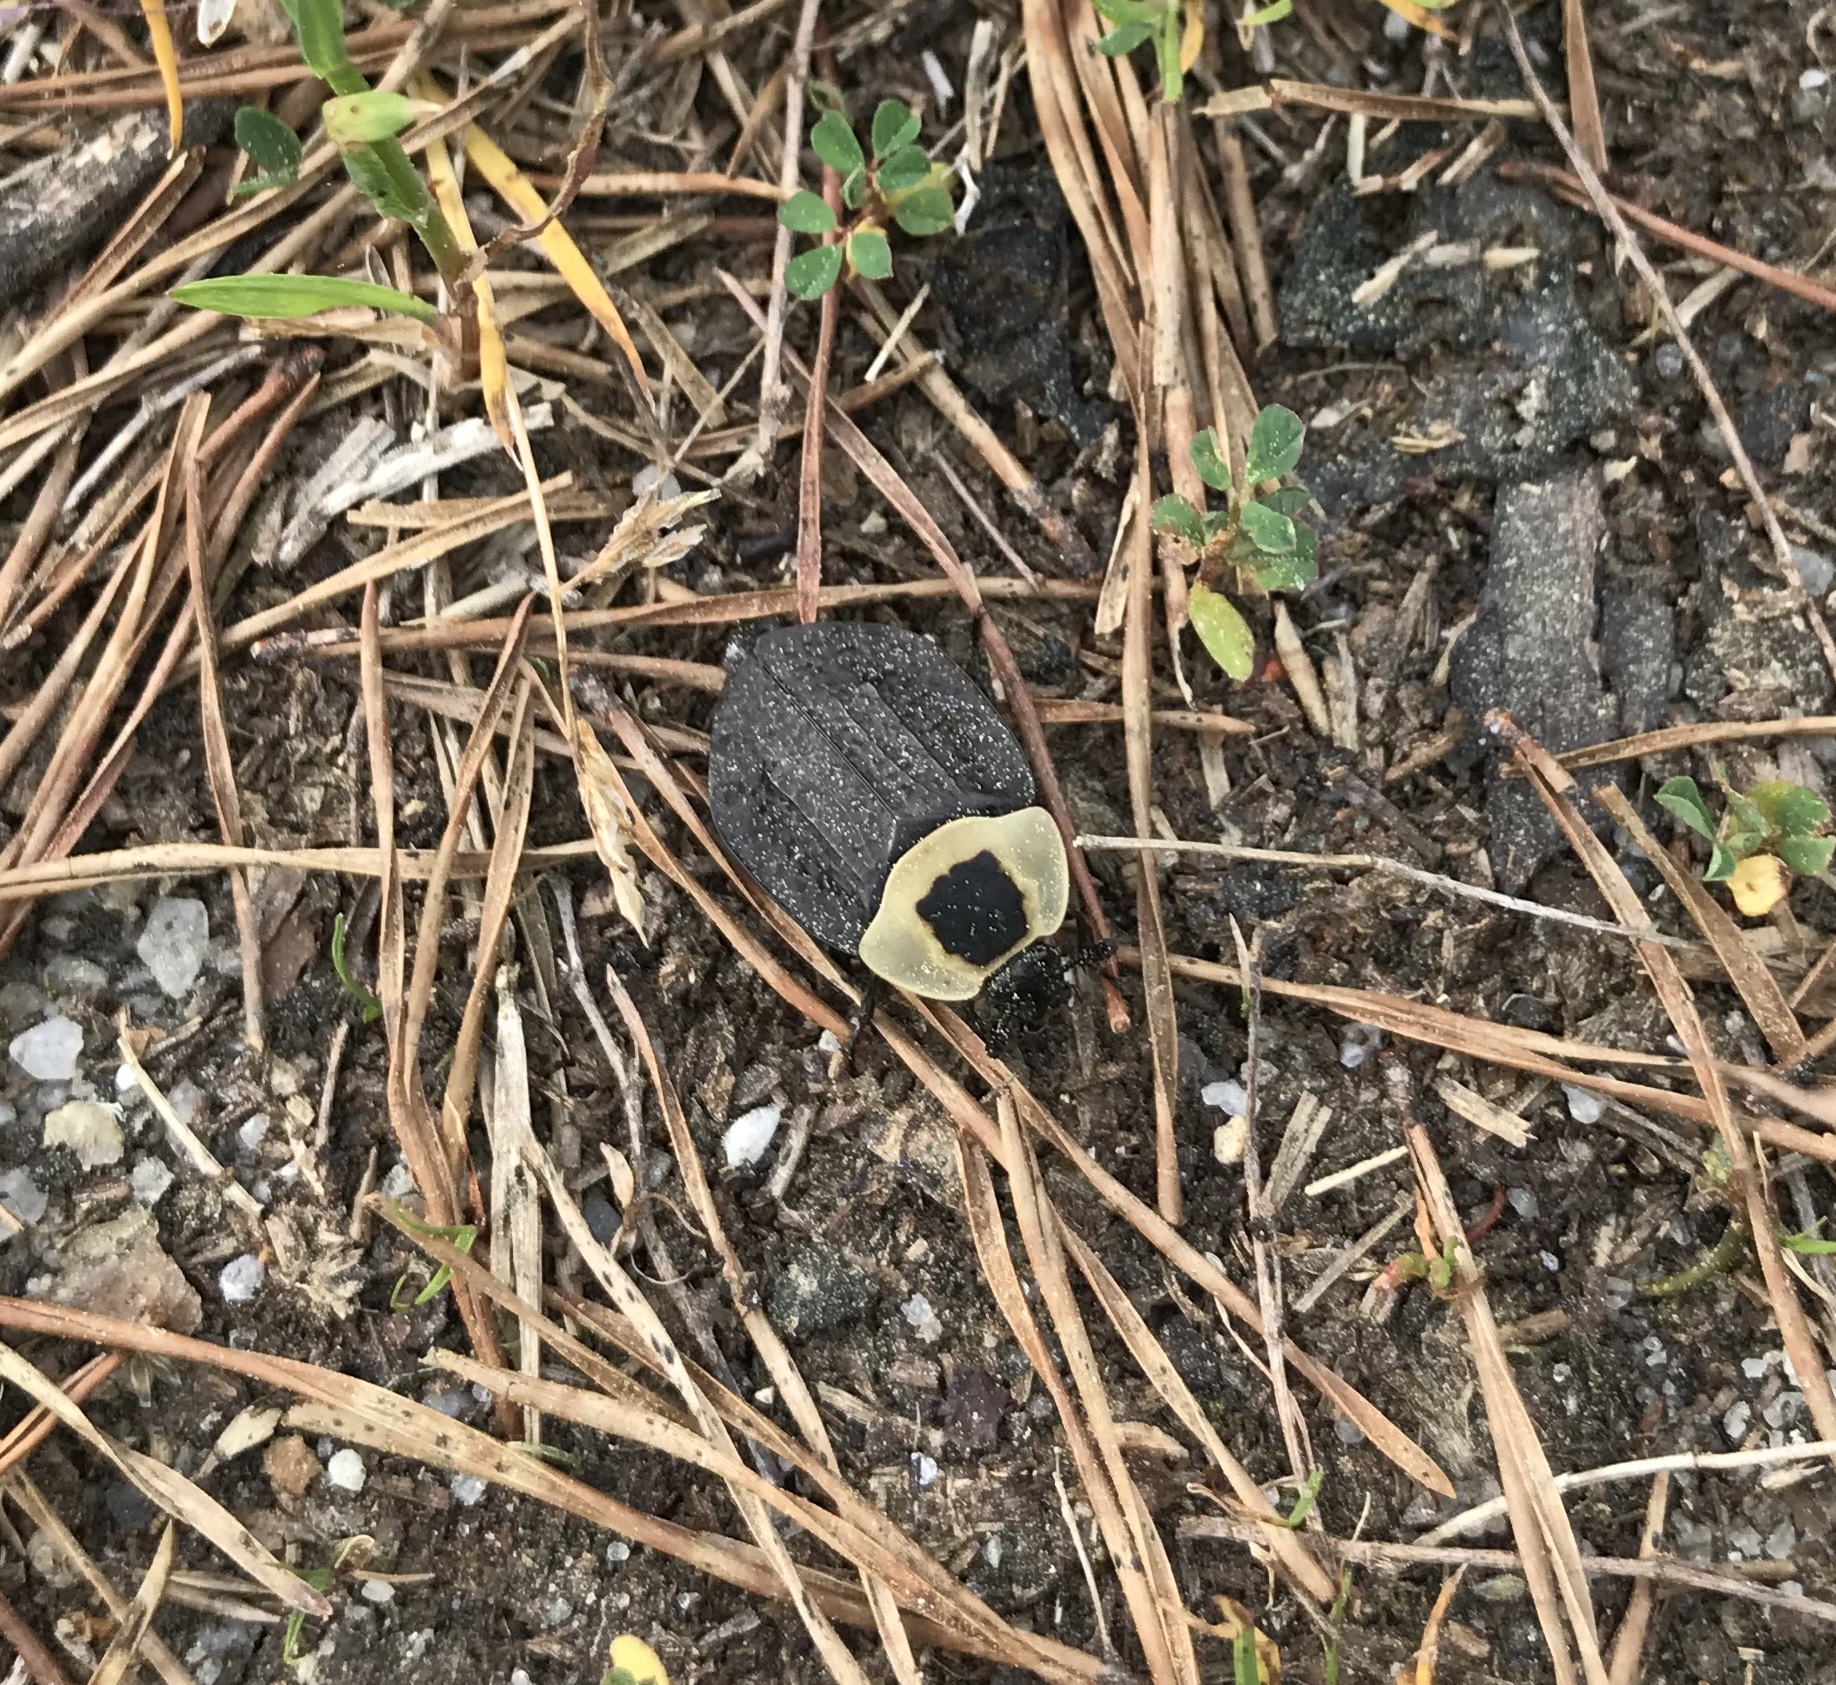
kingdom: Animalia
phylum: Arthropoda
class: Insecta
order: Coleoptera
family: Staphylinidae
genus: Necrophila
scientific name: Necrophila americana
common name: American carrion beetle
